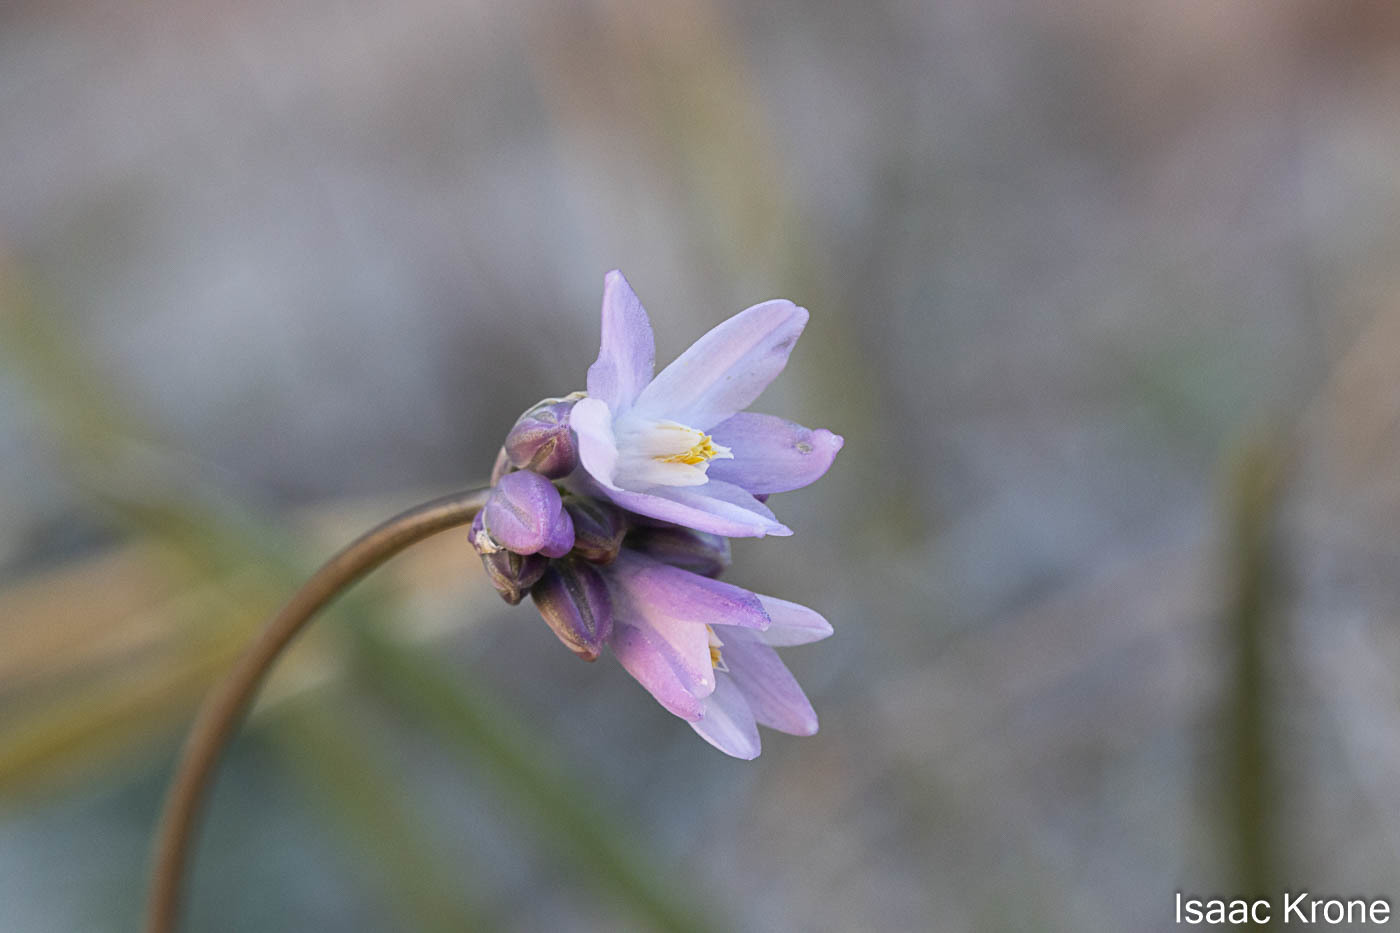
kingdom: Plantae
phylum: Tracheophyta
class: Liliopsida
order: Asparagales
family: Asparagaceae
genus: Dipterostemon
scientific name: Dipterostemon capitatus
